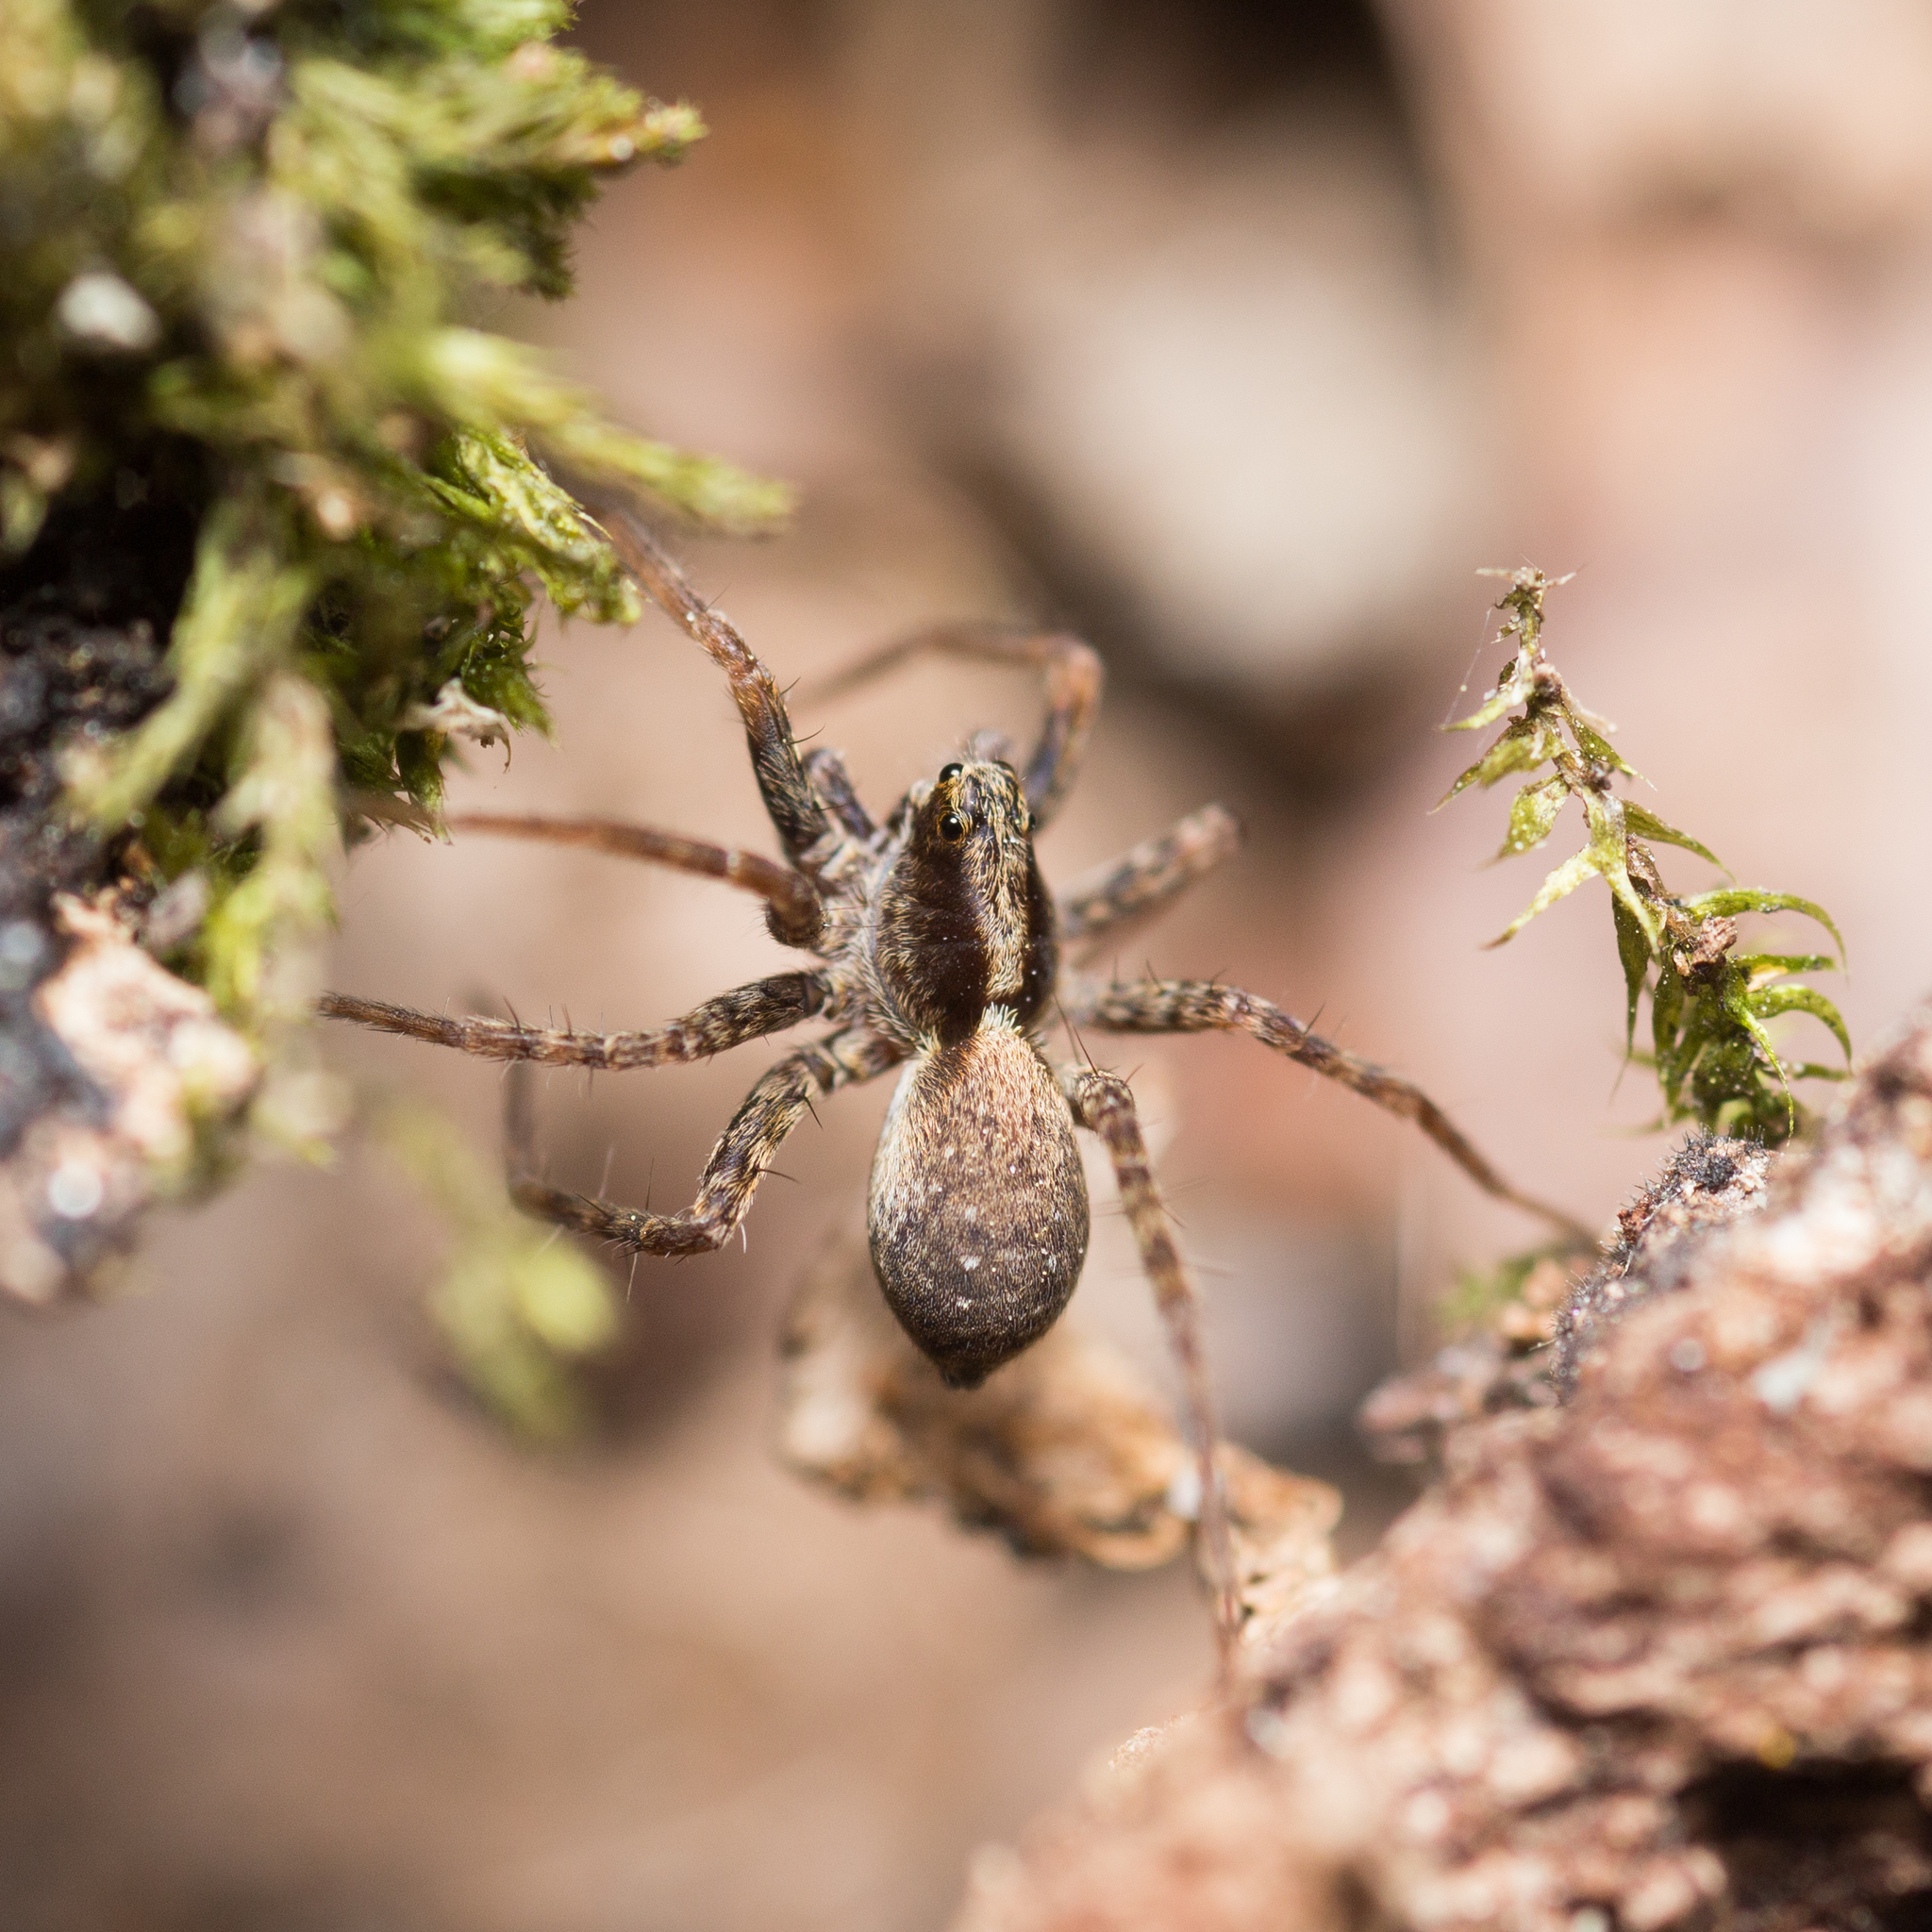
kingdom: Animalia
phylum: Arthropoda
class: Arachnida
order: Araneae
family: Lycosidae
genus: Pardosa
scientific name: Pardosa
